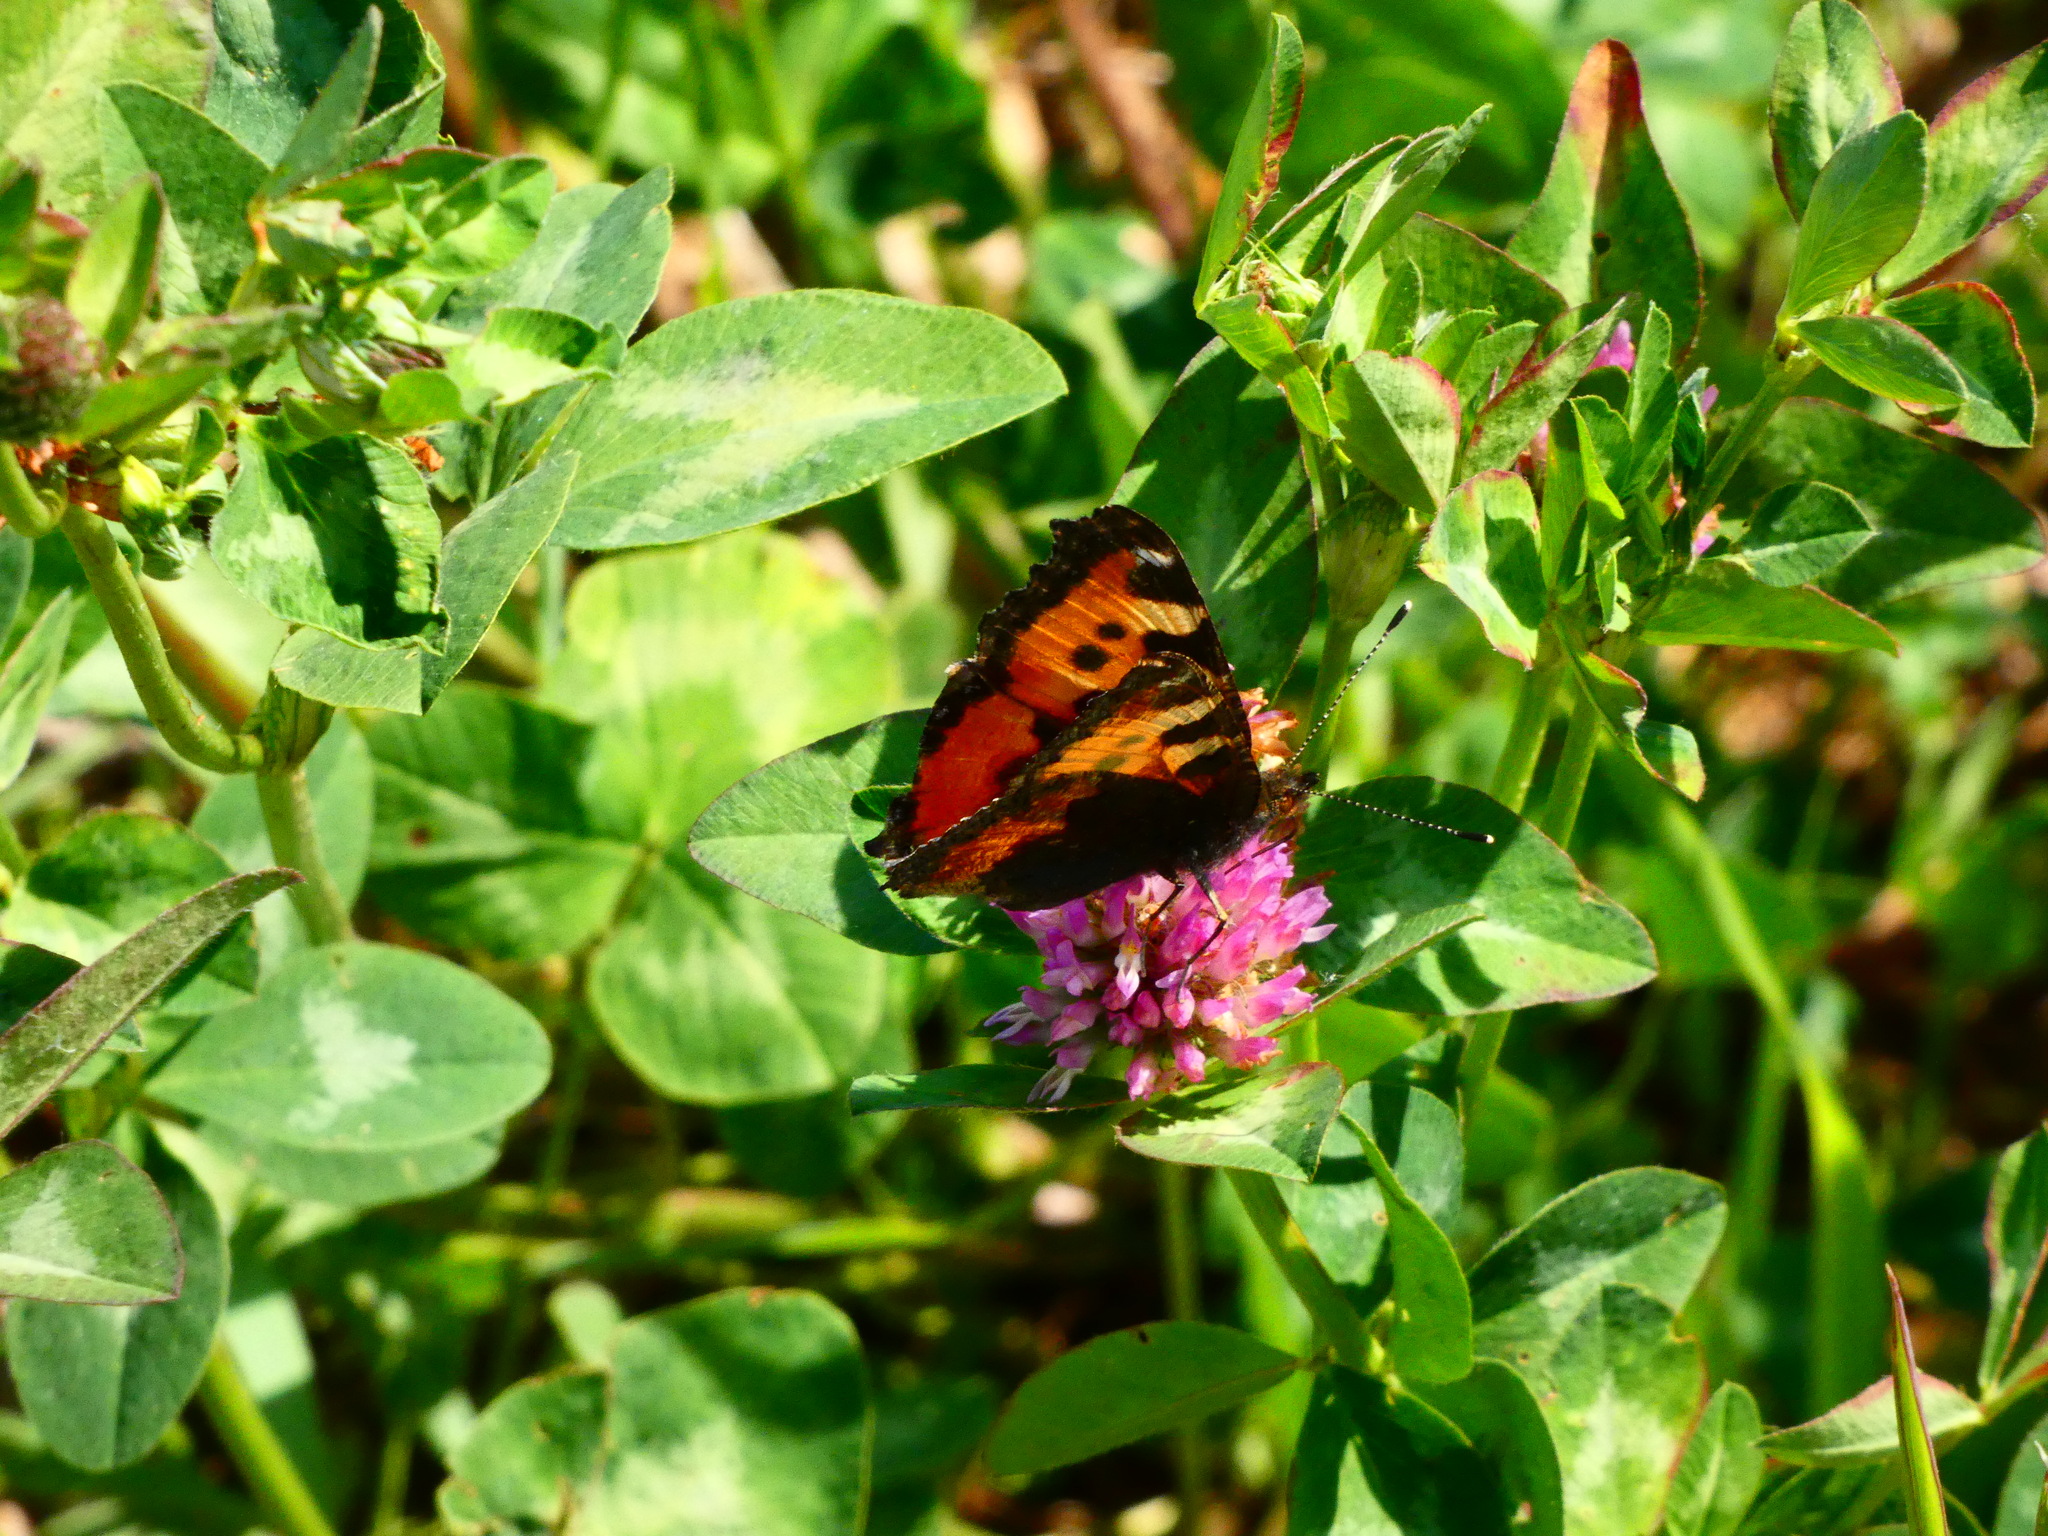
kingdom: Animalia
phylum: Arthropoda
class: Insecta
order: Lepidoptera
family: Nymphalidae
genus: Aglais
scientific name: Aglais urticae
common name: Small tortoiseshell
